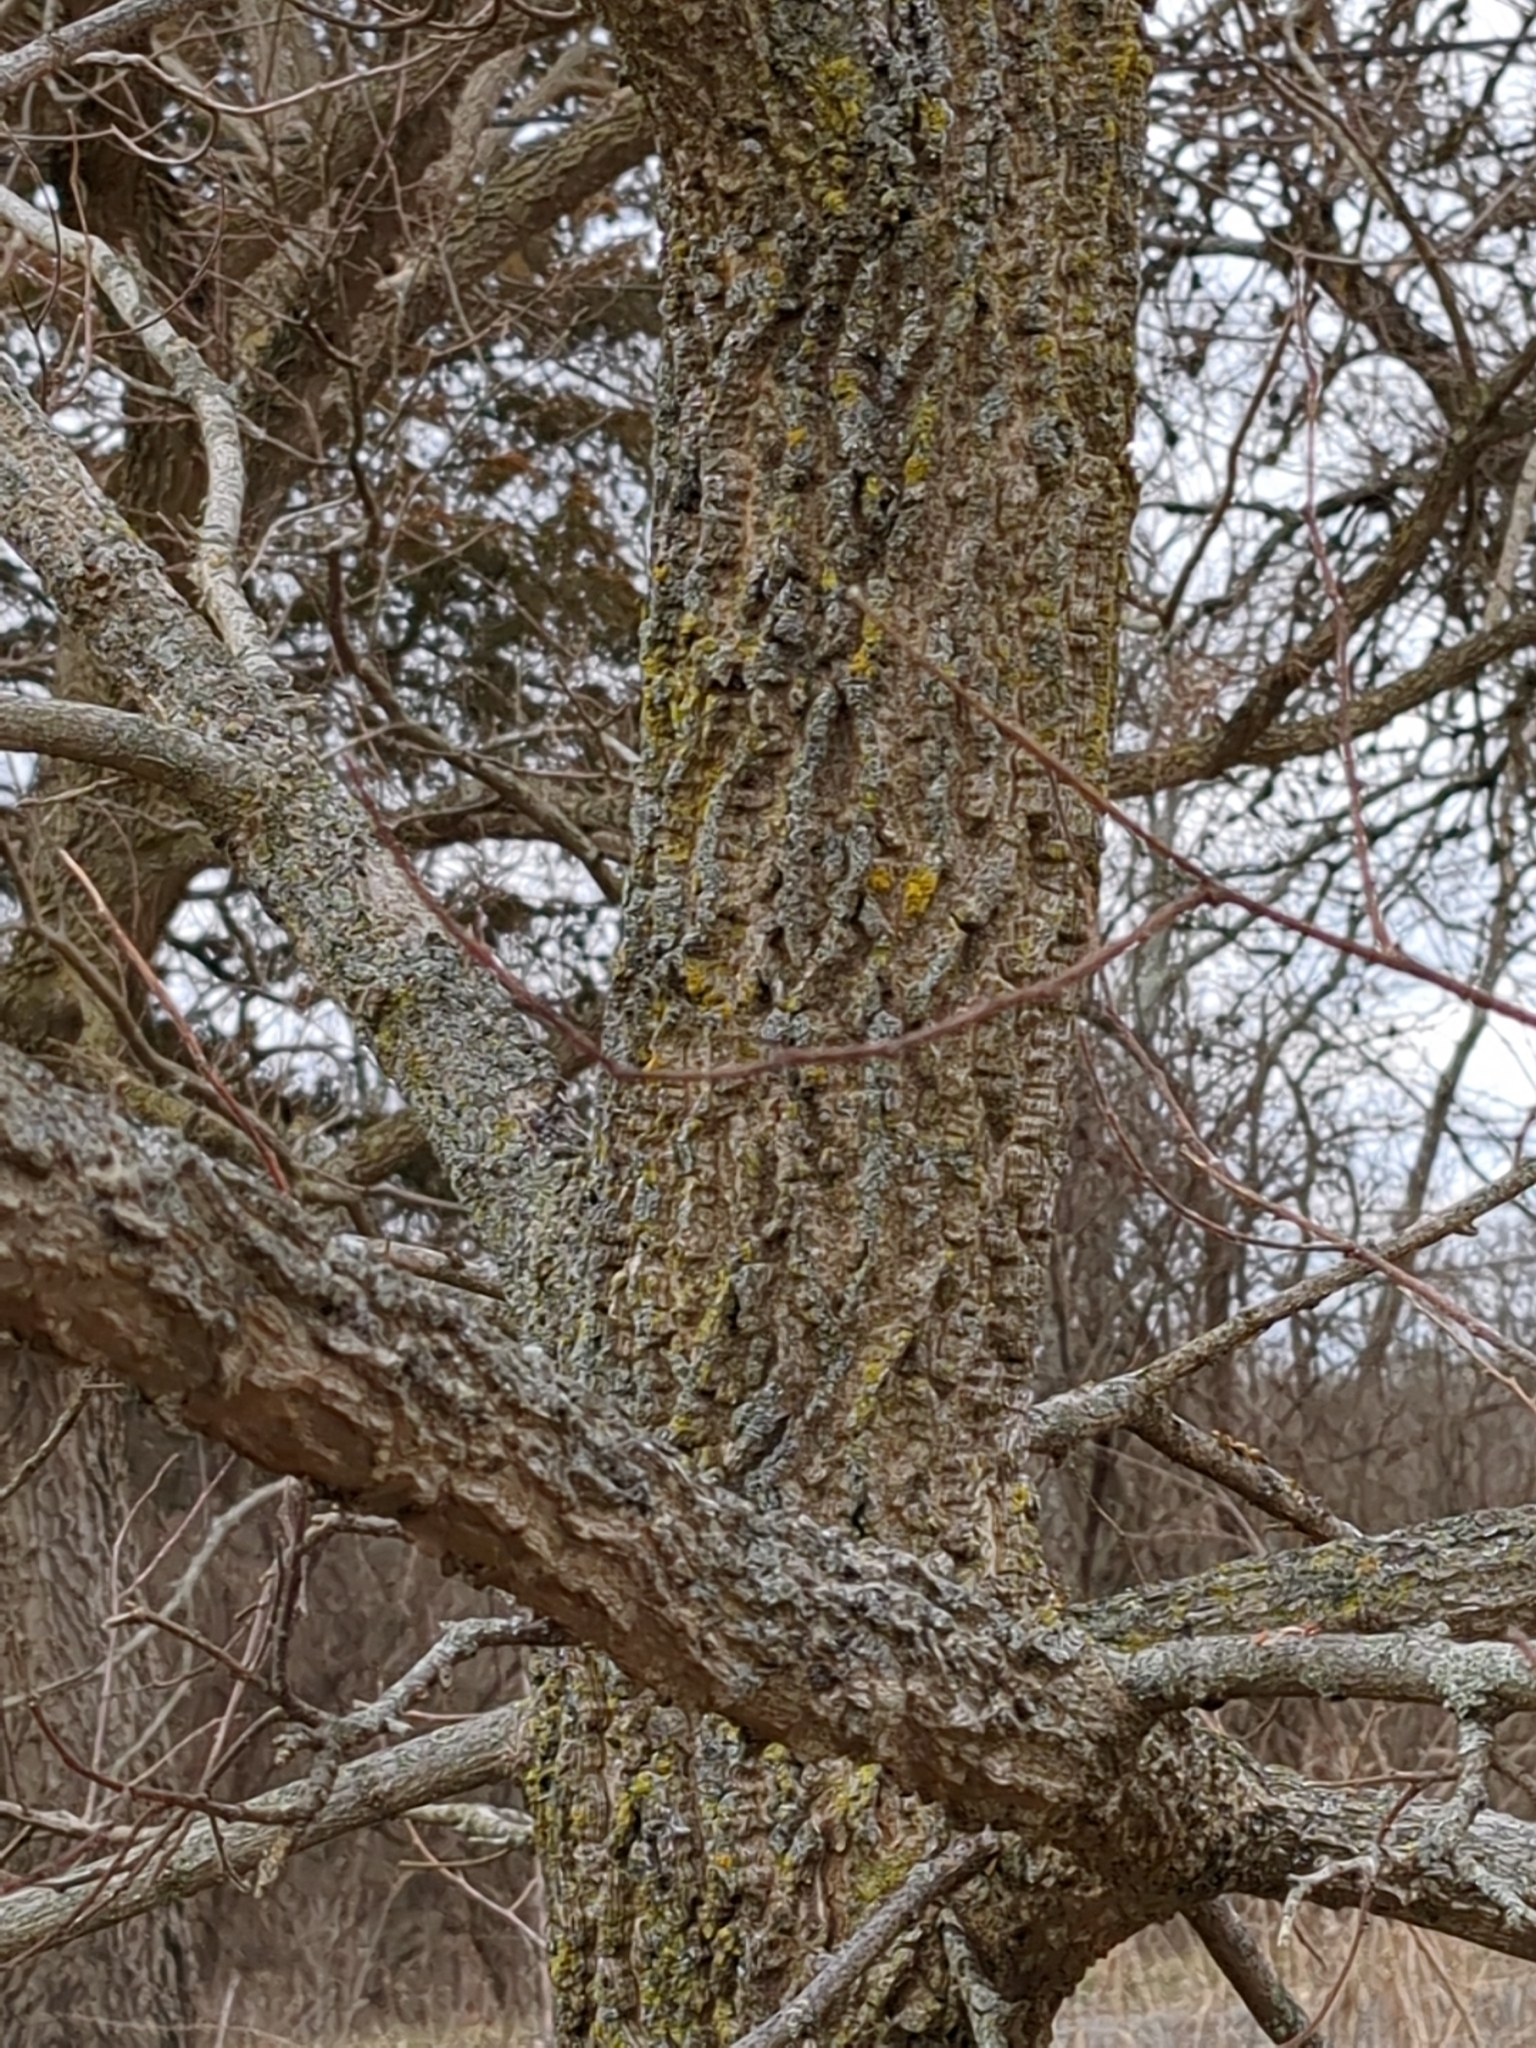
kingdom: Plantae
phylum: Tracheophyta
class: Magnoliopsida
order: Rosales
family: Cannabaceae
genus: Celtis
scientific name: Celtis occidentalis
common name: Common hackberry
